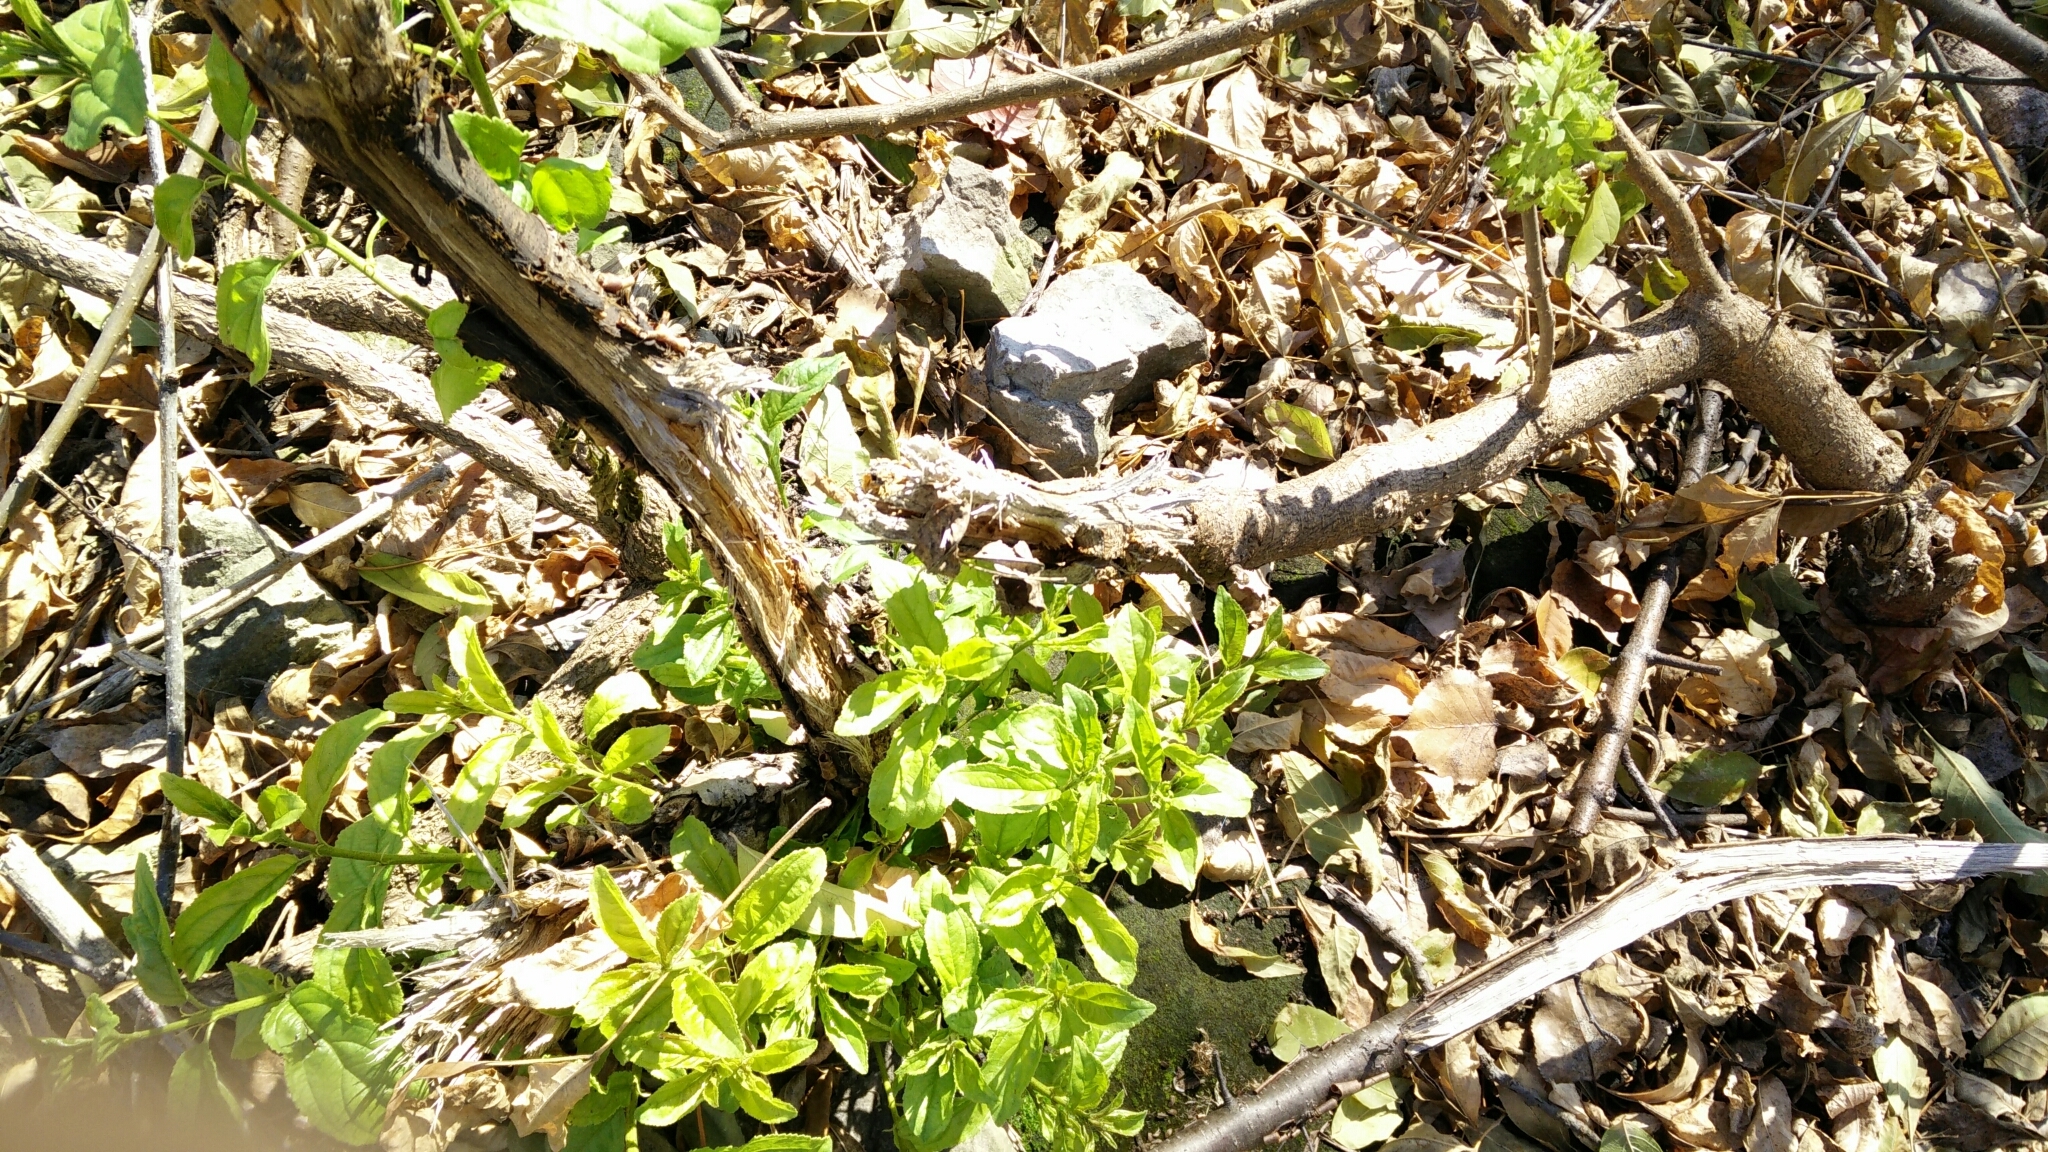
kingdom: Plantae
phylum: Tracheophyta
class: Magnoliopsida
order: Rosales
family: Rhamnaceae
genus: Rhamnus
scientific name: Rhamnus cathartica
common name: Common buckthorn
